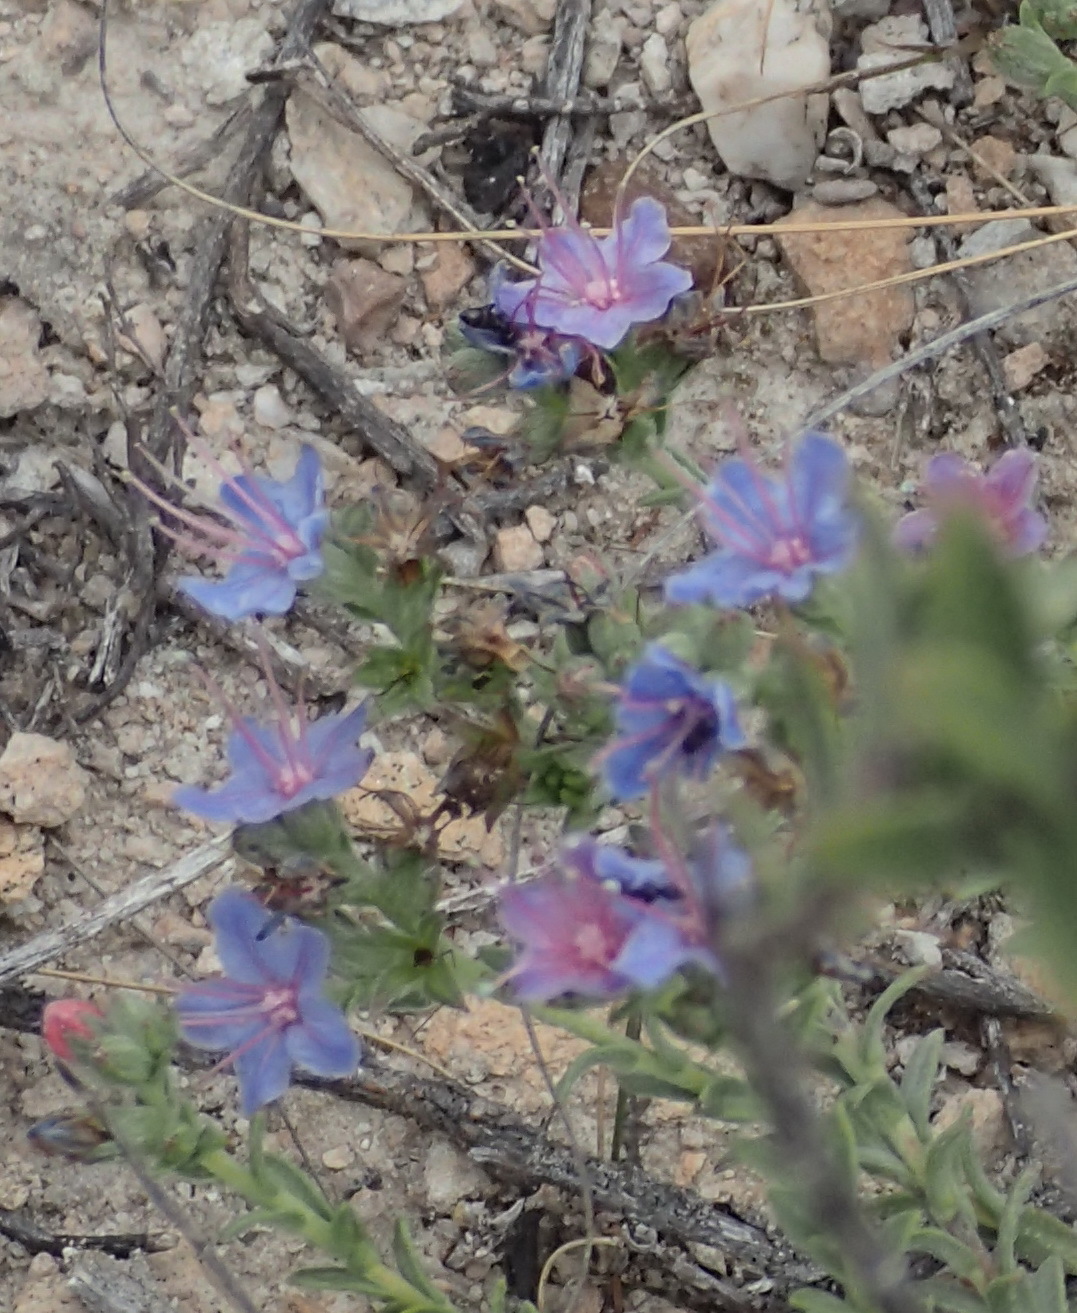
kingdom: Plantae
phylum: Tracheophyta
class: Magnoliopsida
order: Boraginales
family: Boraginaceae
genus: Lobostemon
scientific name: Lobostemon echioides
